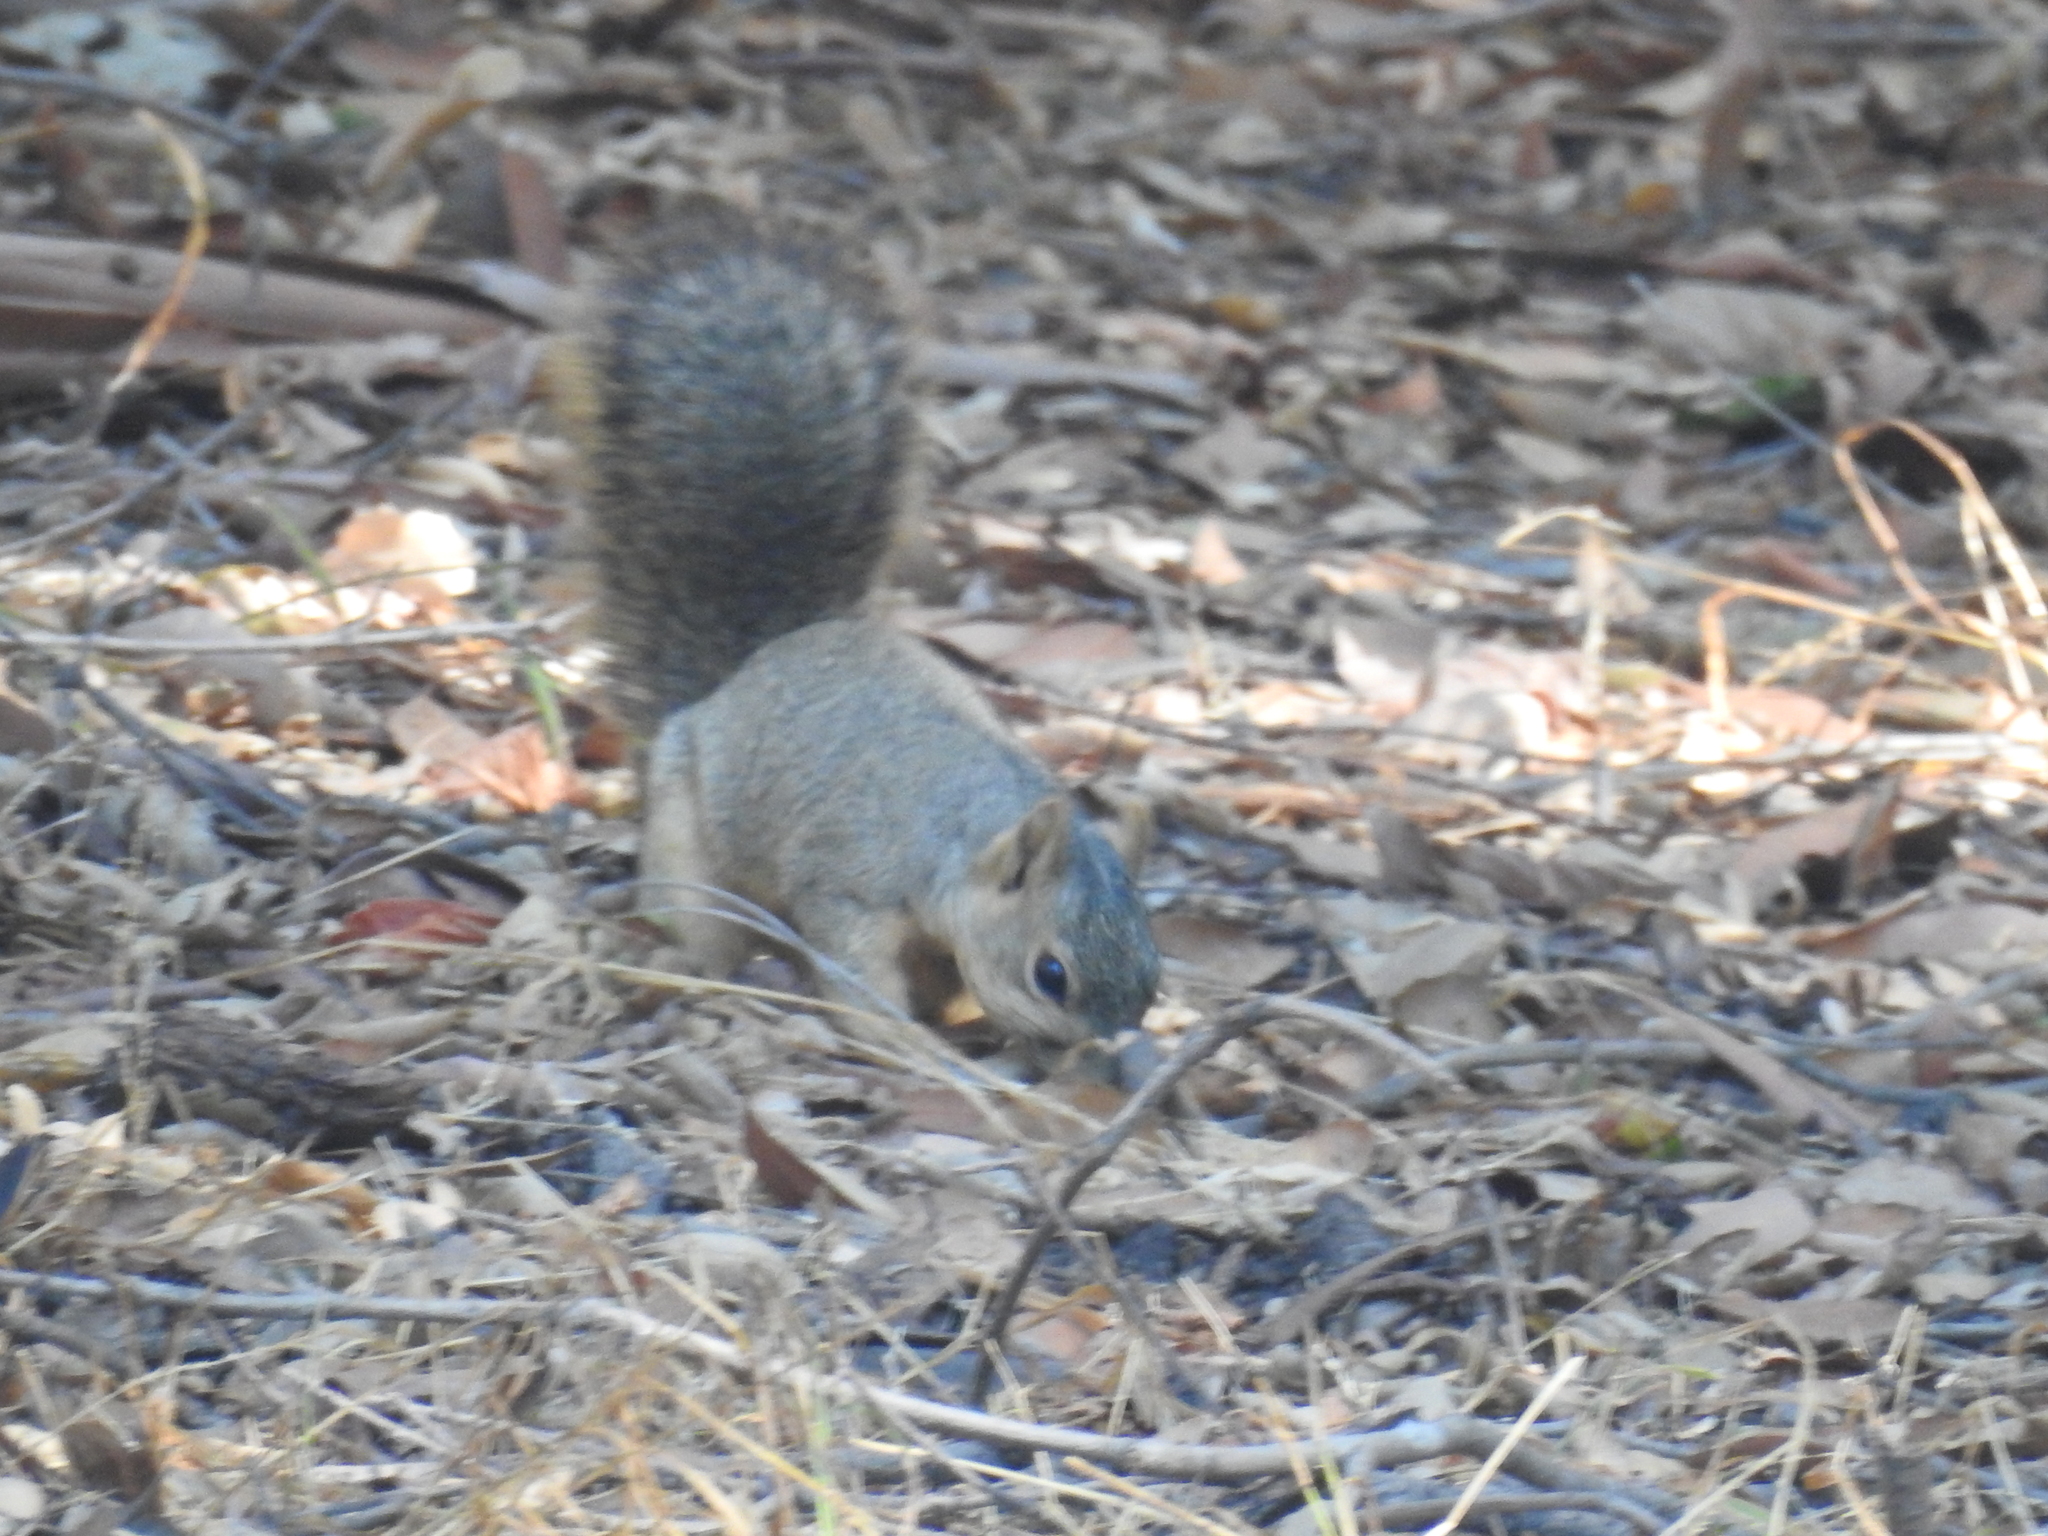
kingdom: Animalia
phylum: Chordata
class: Mammalia
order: Rodentia
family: Sciuridae
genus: Sciurus
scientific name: Sciurus niger
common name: Fox squirrel
